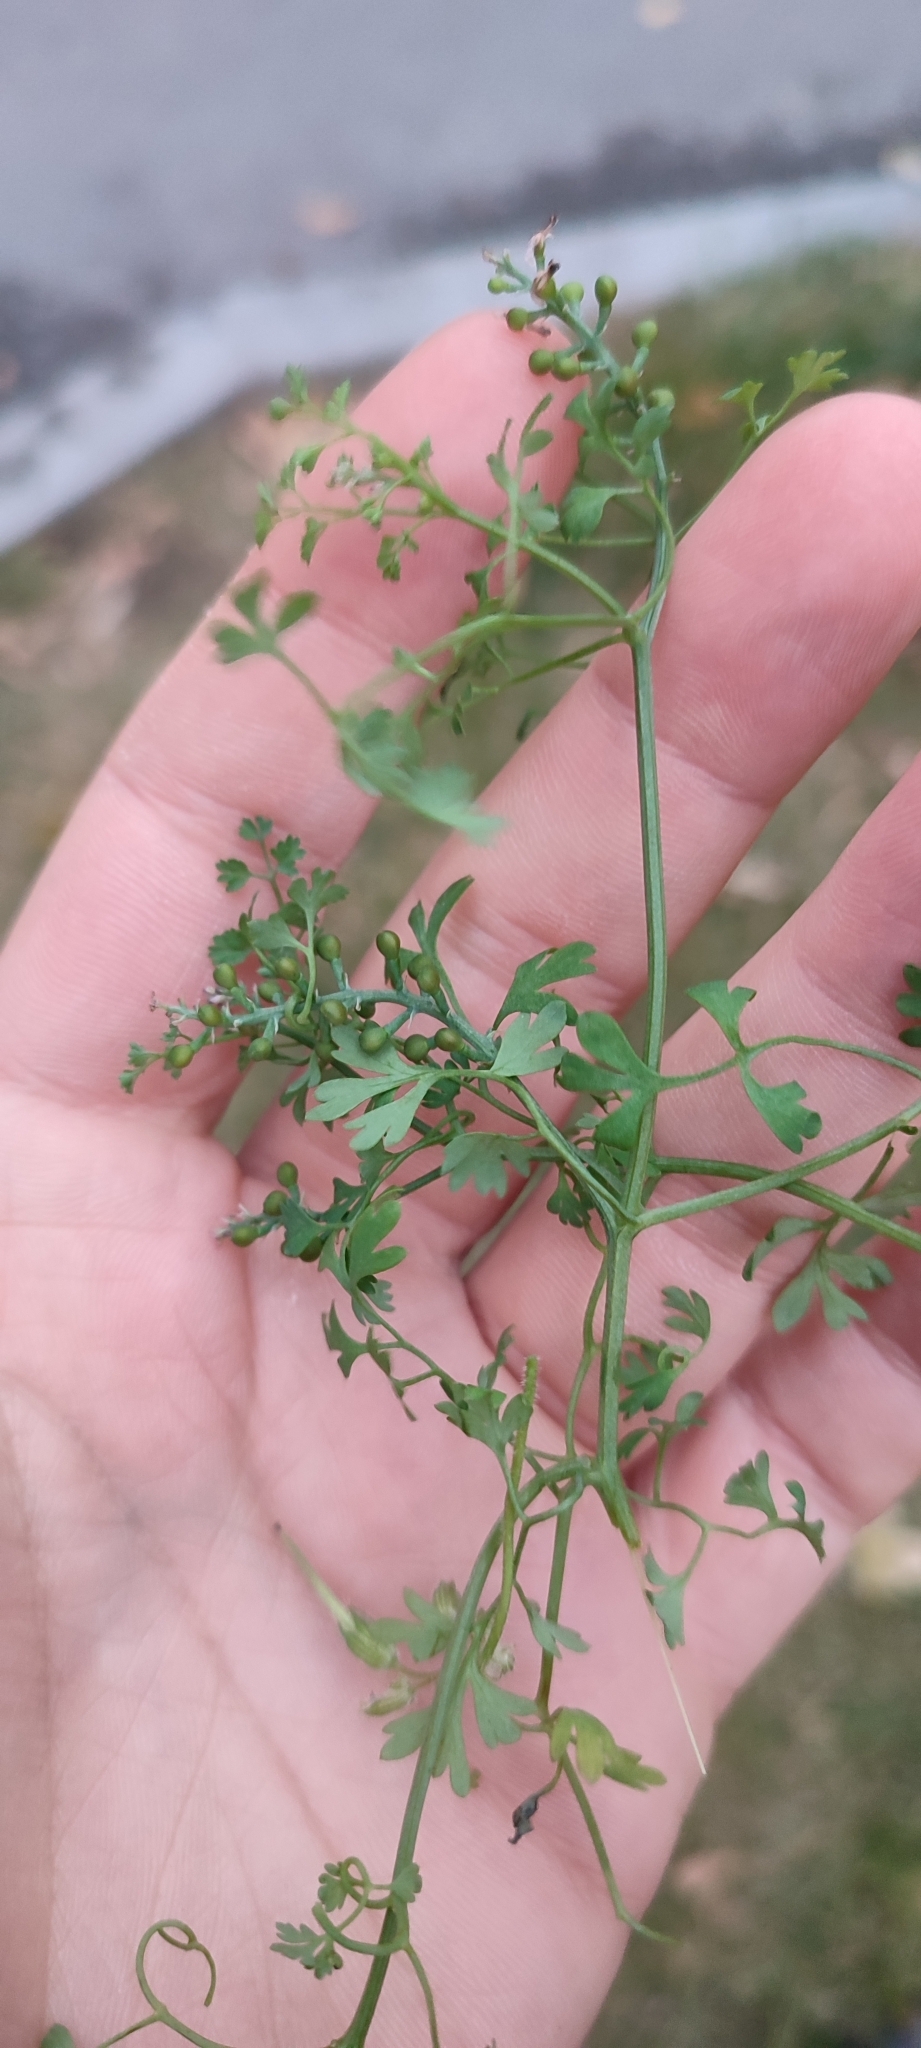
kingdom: Plantae
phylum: Tracheophyta
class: Magnoliopsida
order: Ranunculales
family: Papaveraceae
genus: Fumaria
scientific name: Fumaria officinalis
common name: Common fumitory
